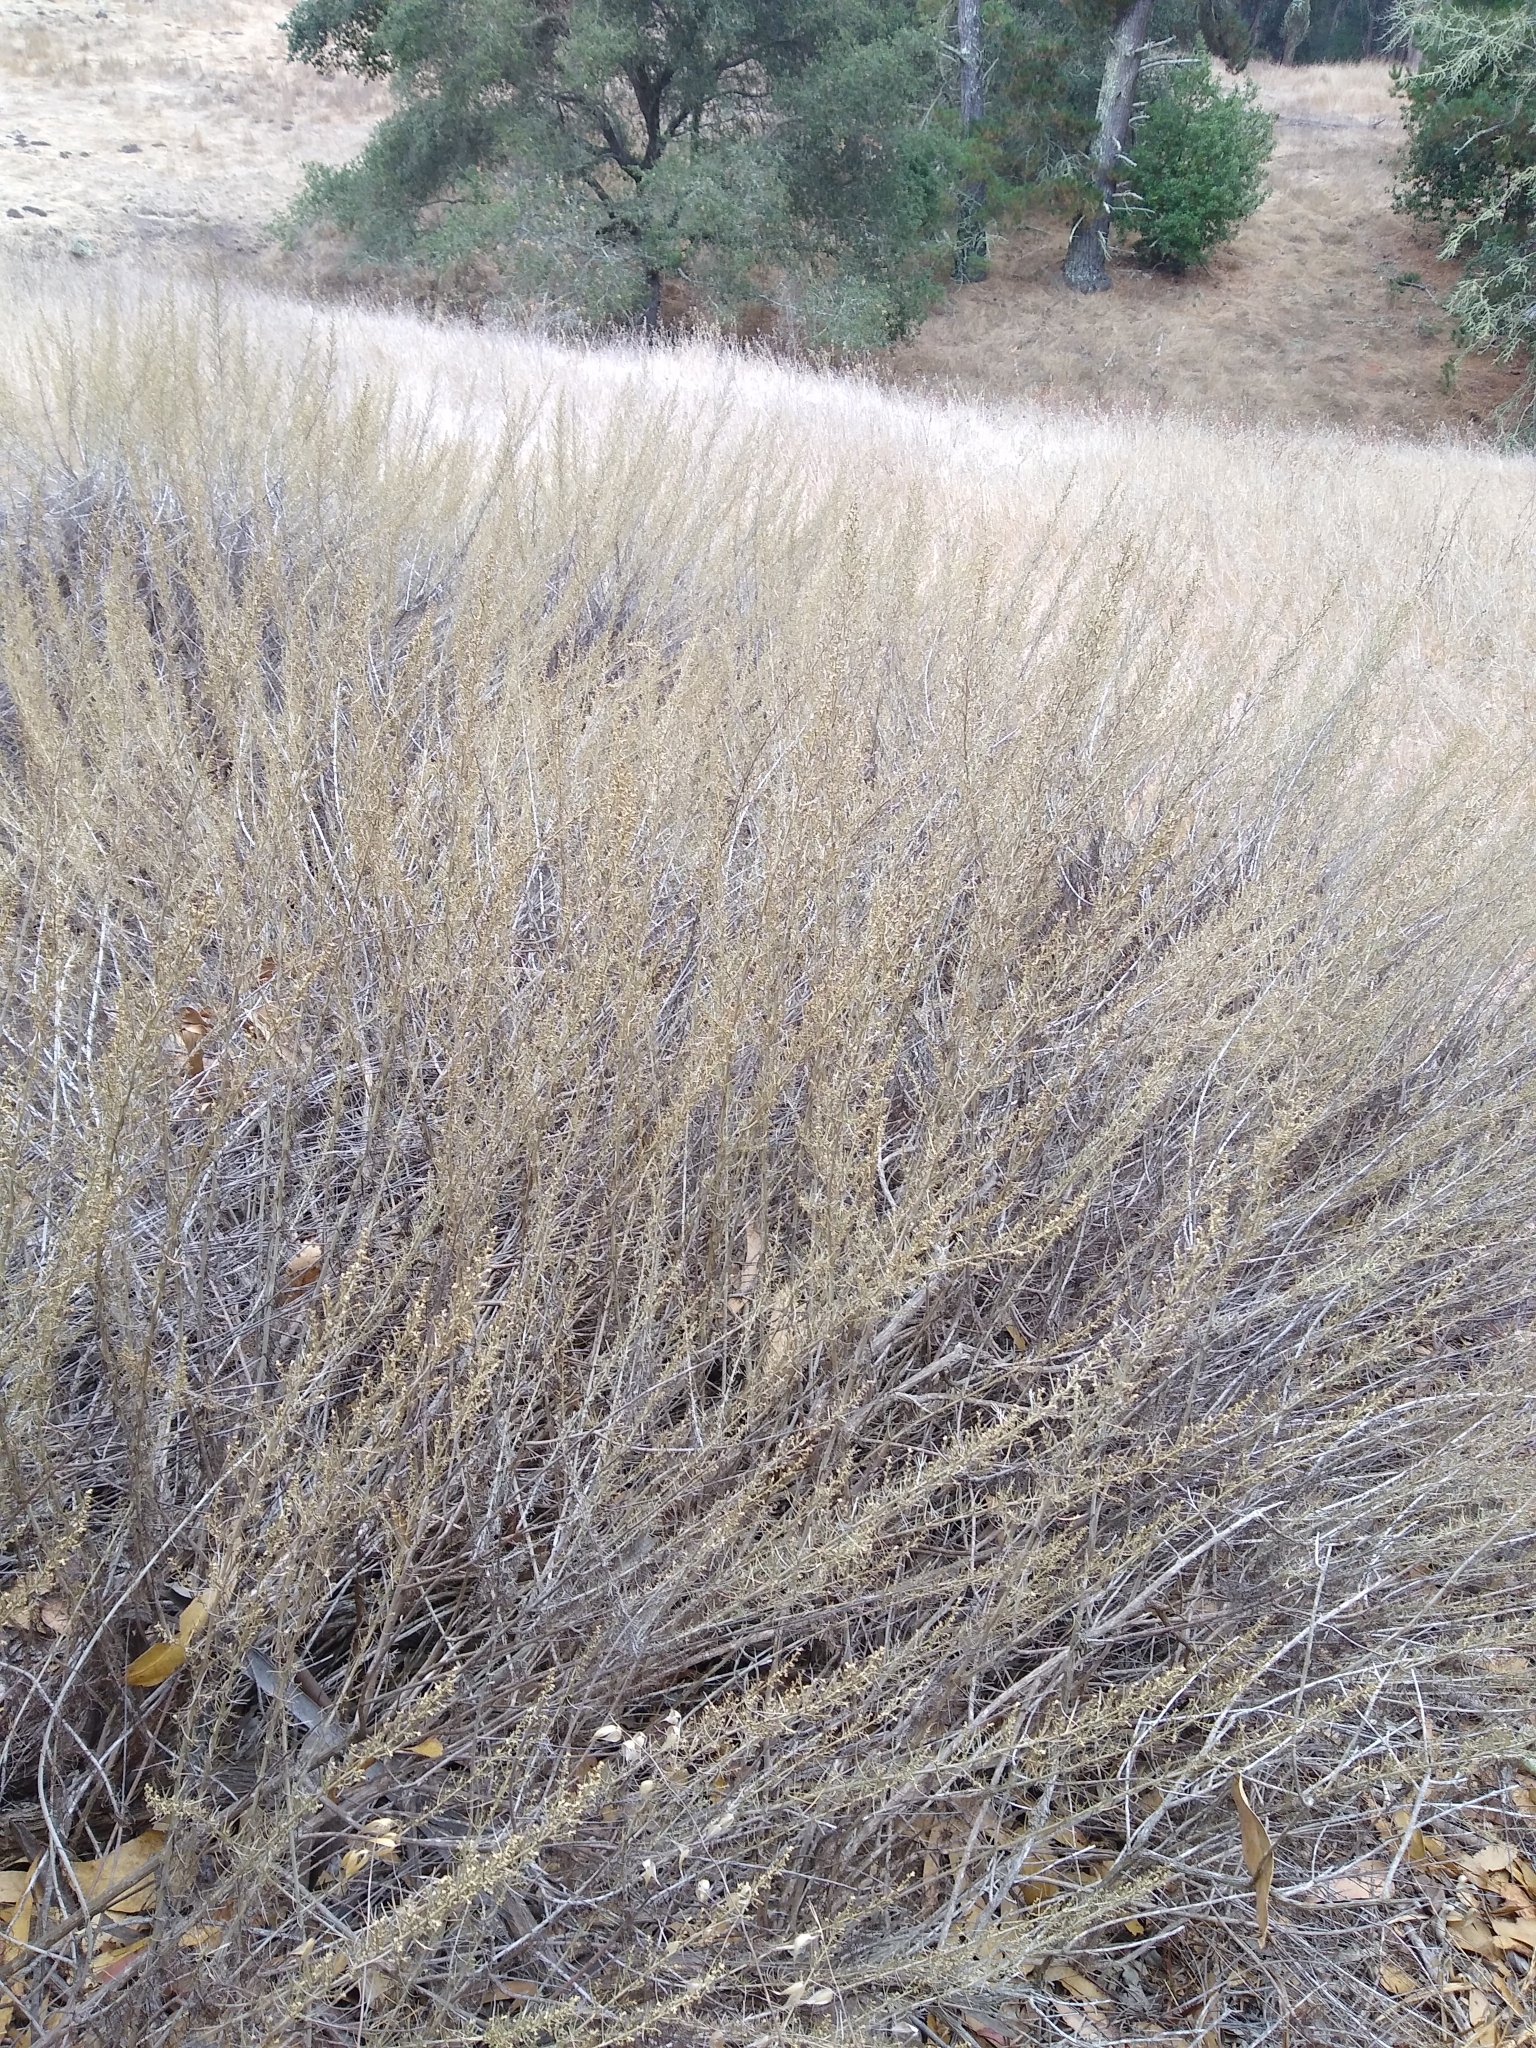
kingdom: Plantae
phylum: Tracheophyta
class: Magnoliopsida
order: Asterales
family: Asteraceae
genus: Artemisia
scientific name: Artemisia californica
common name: California sagebrush
